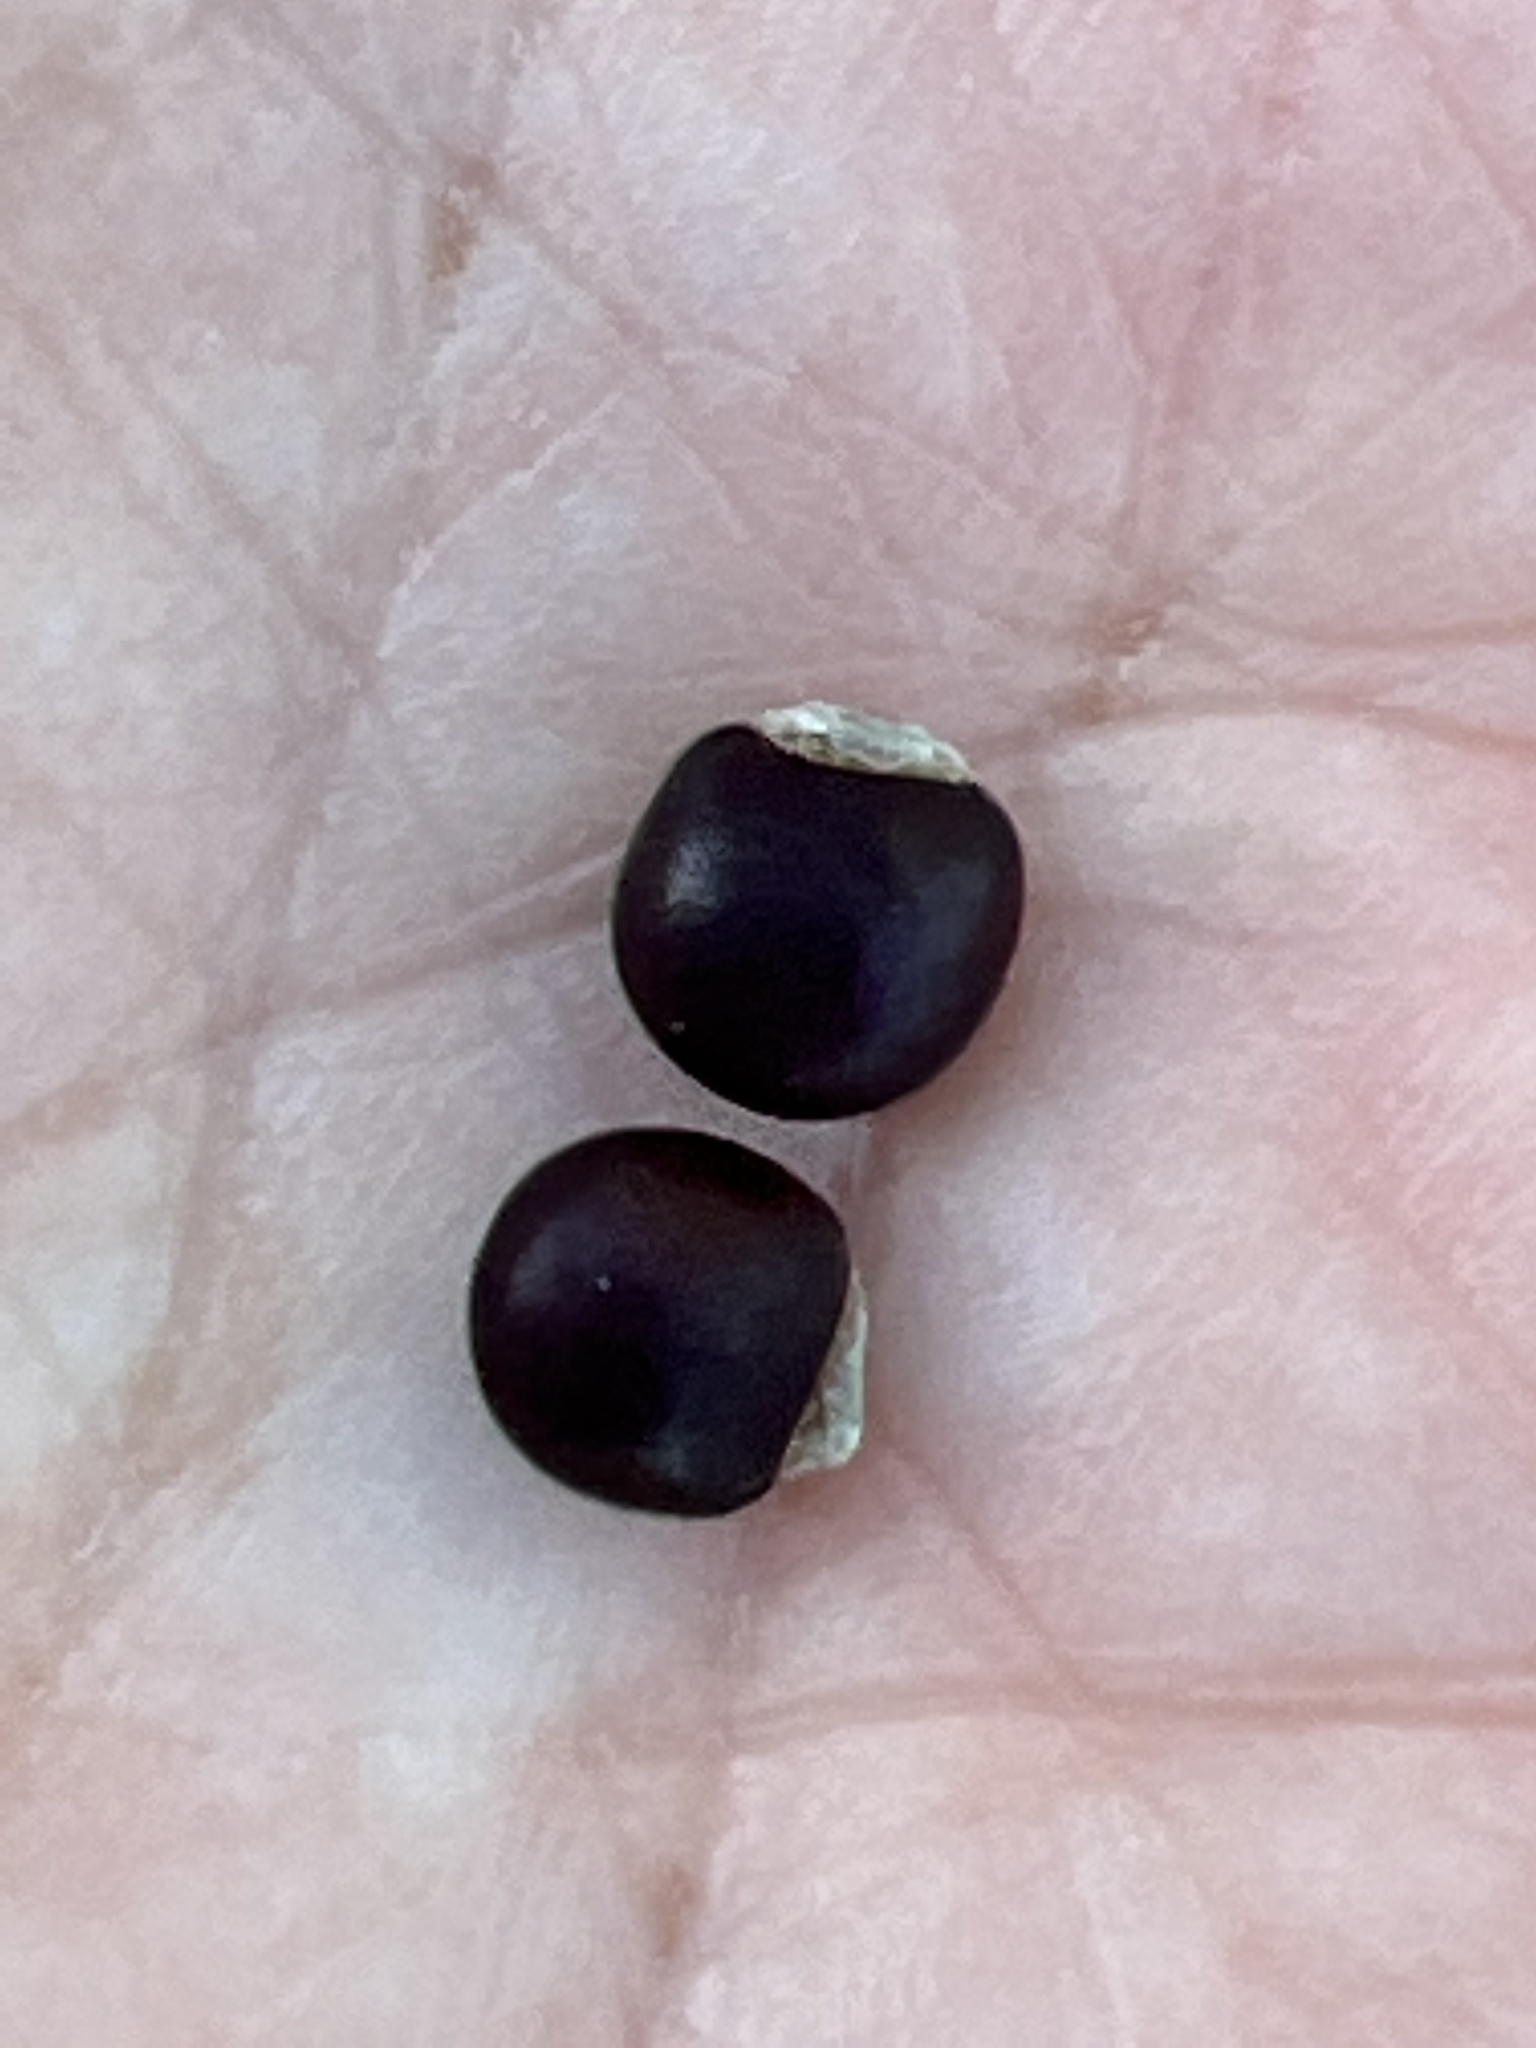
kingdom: Plantae
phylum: Tracheophyta
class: Magnoliopsida
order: Fabales
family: Fabaceae
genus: Cajanus
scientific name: Cajanus cajan
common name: Pigeonpea
